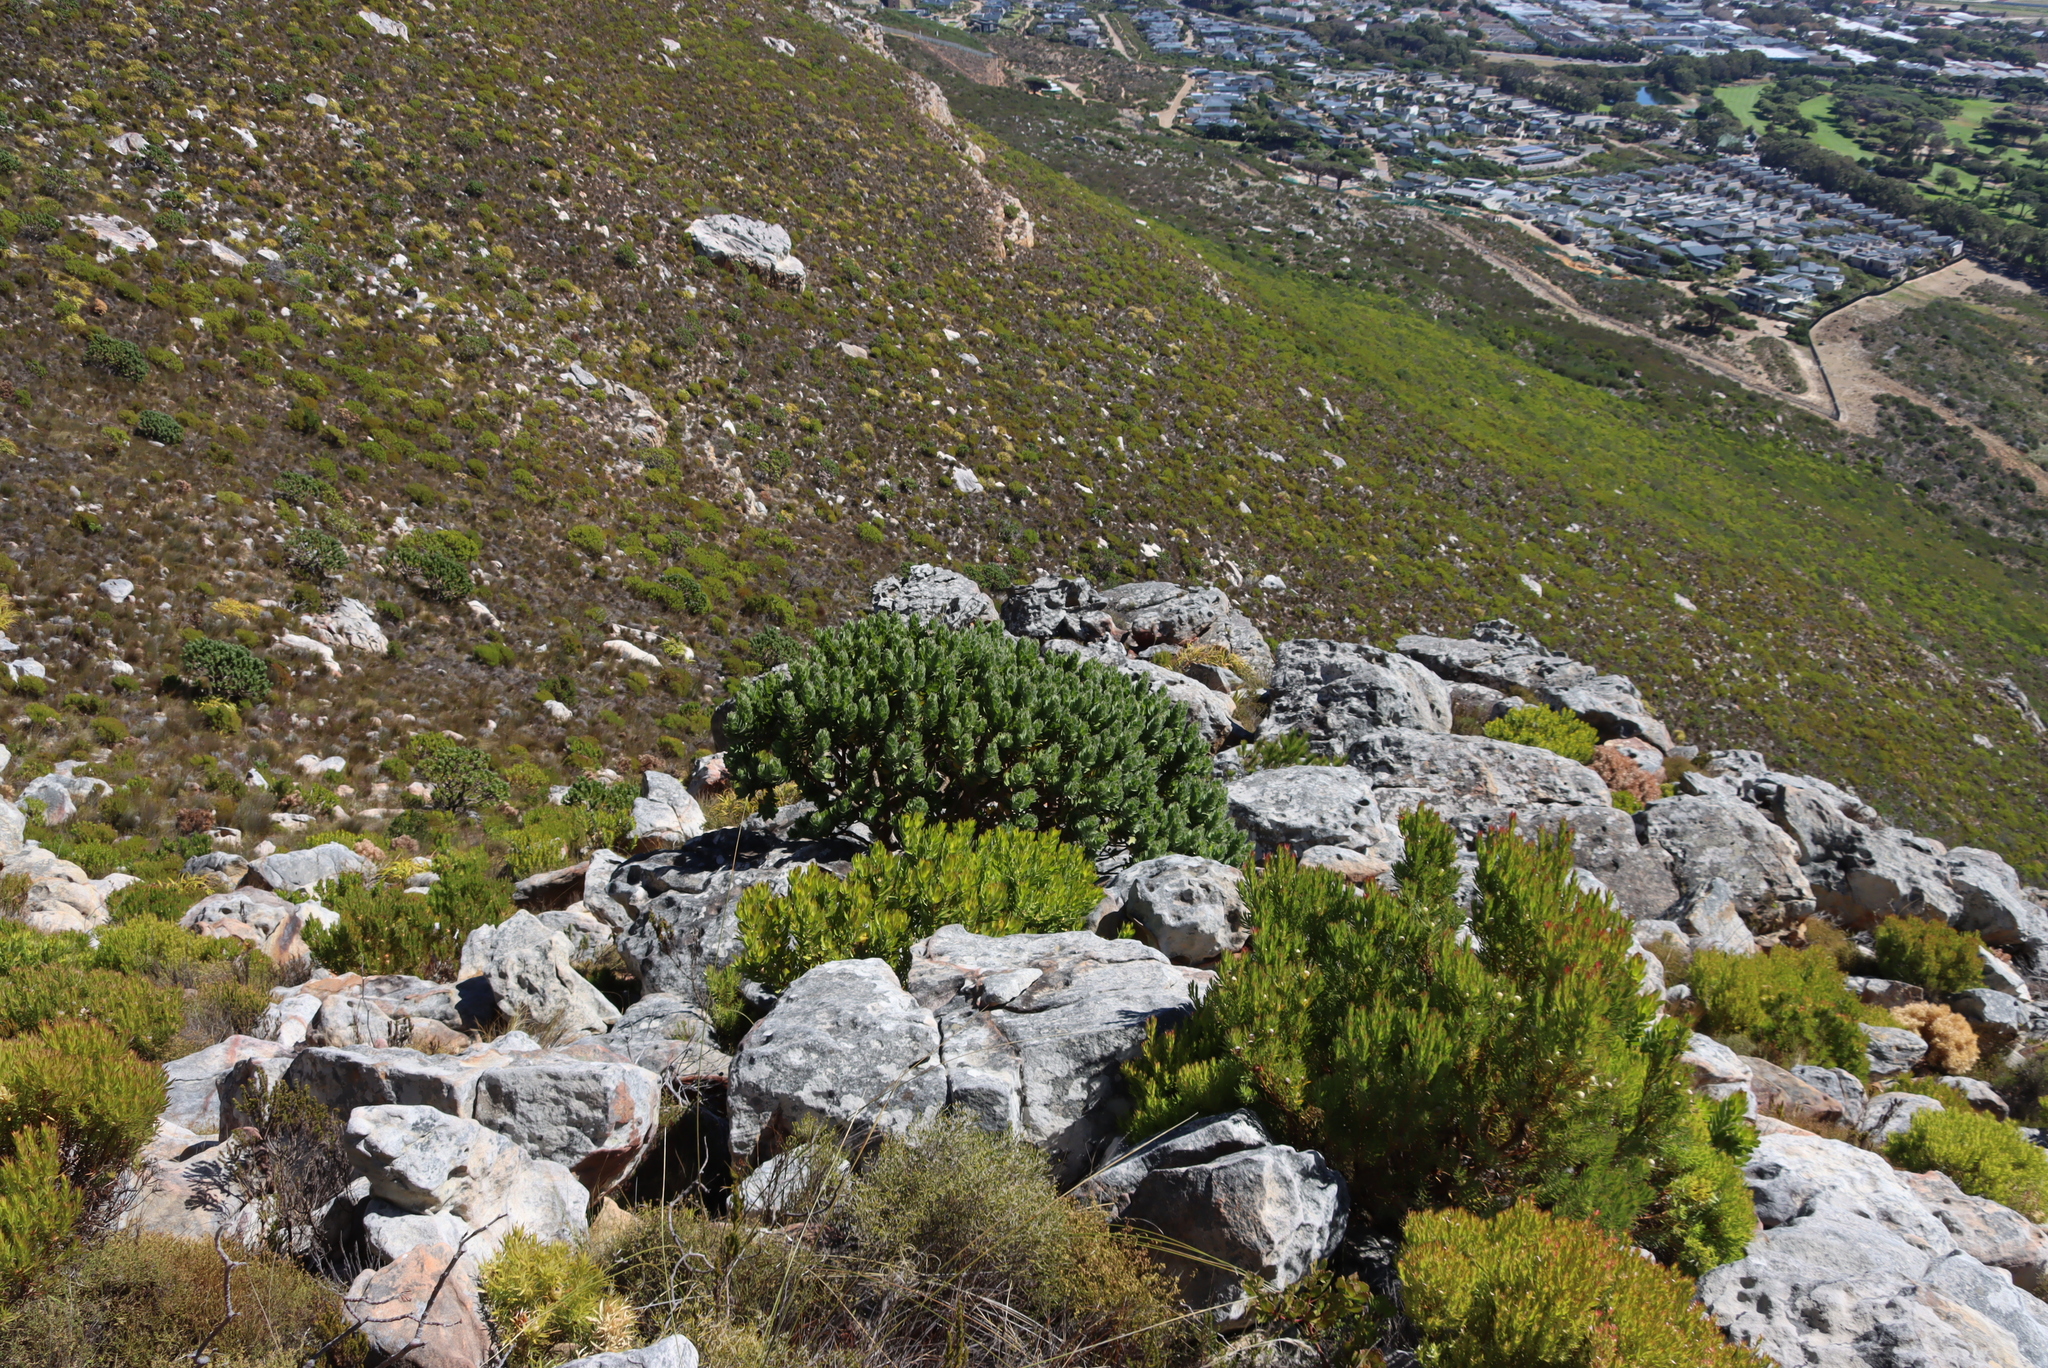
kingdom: Plantae
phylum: Tracheophyta
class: Magnoliopsida
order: Proteales
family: Proteaceae
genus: Leucospermum
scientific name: Leucospermum conocarpodendron
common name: Tree pincushion
